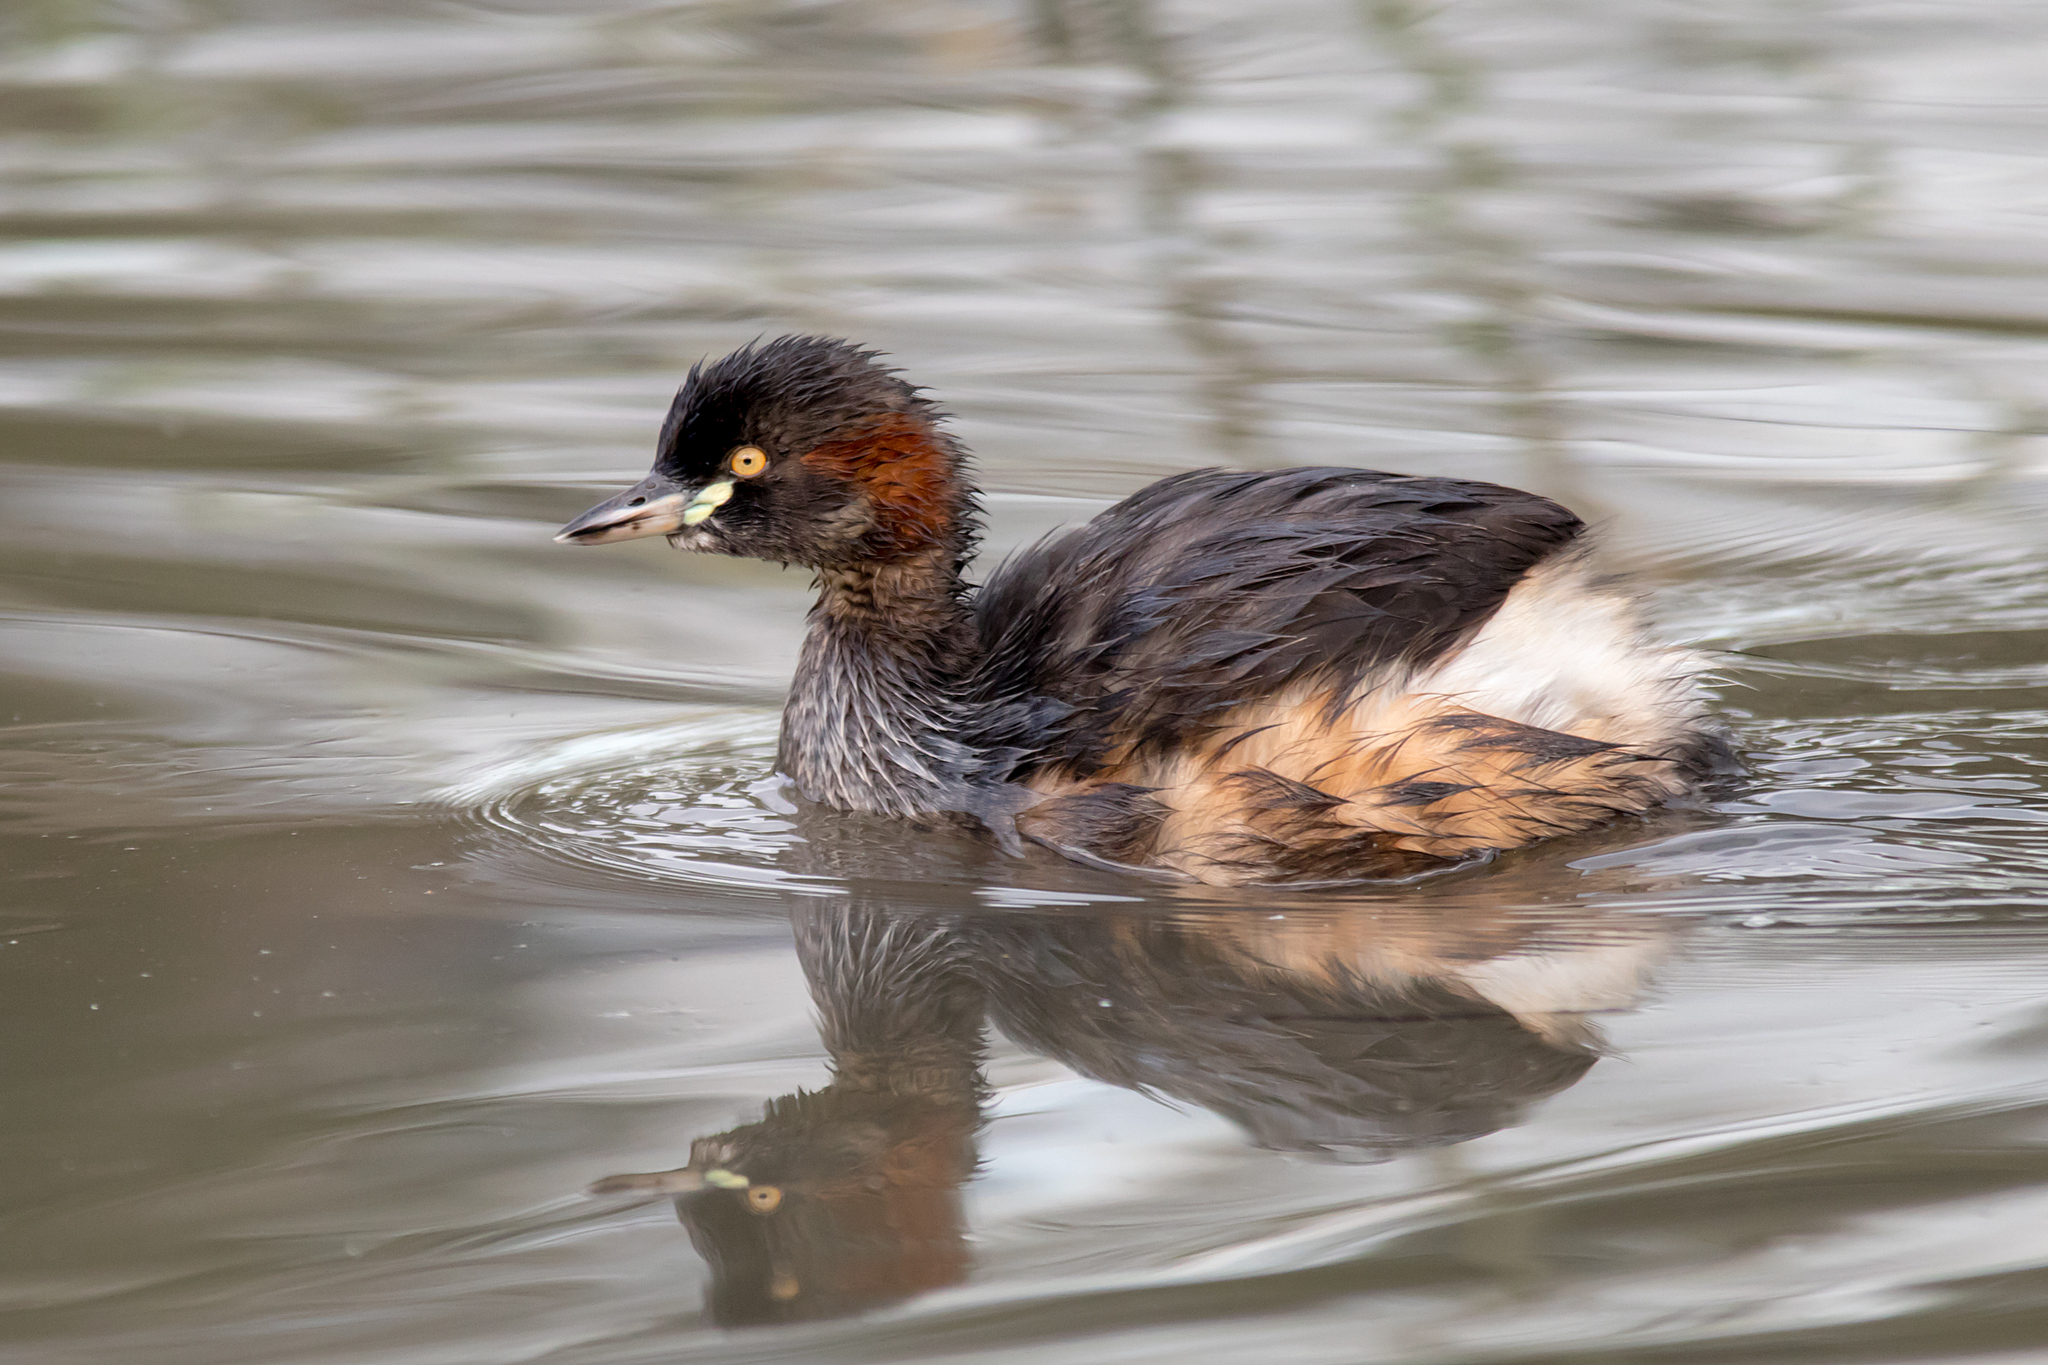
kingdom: Animalia
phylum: Chordata
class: Aves
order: Podicipediformes
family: Podicipedidae
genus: Tachybaptus
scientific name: Tachybaptus novaehollandiae
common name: Australasian grebe
